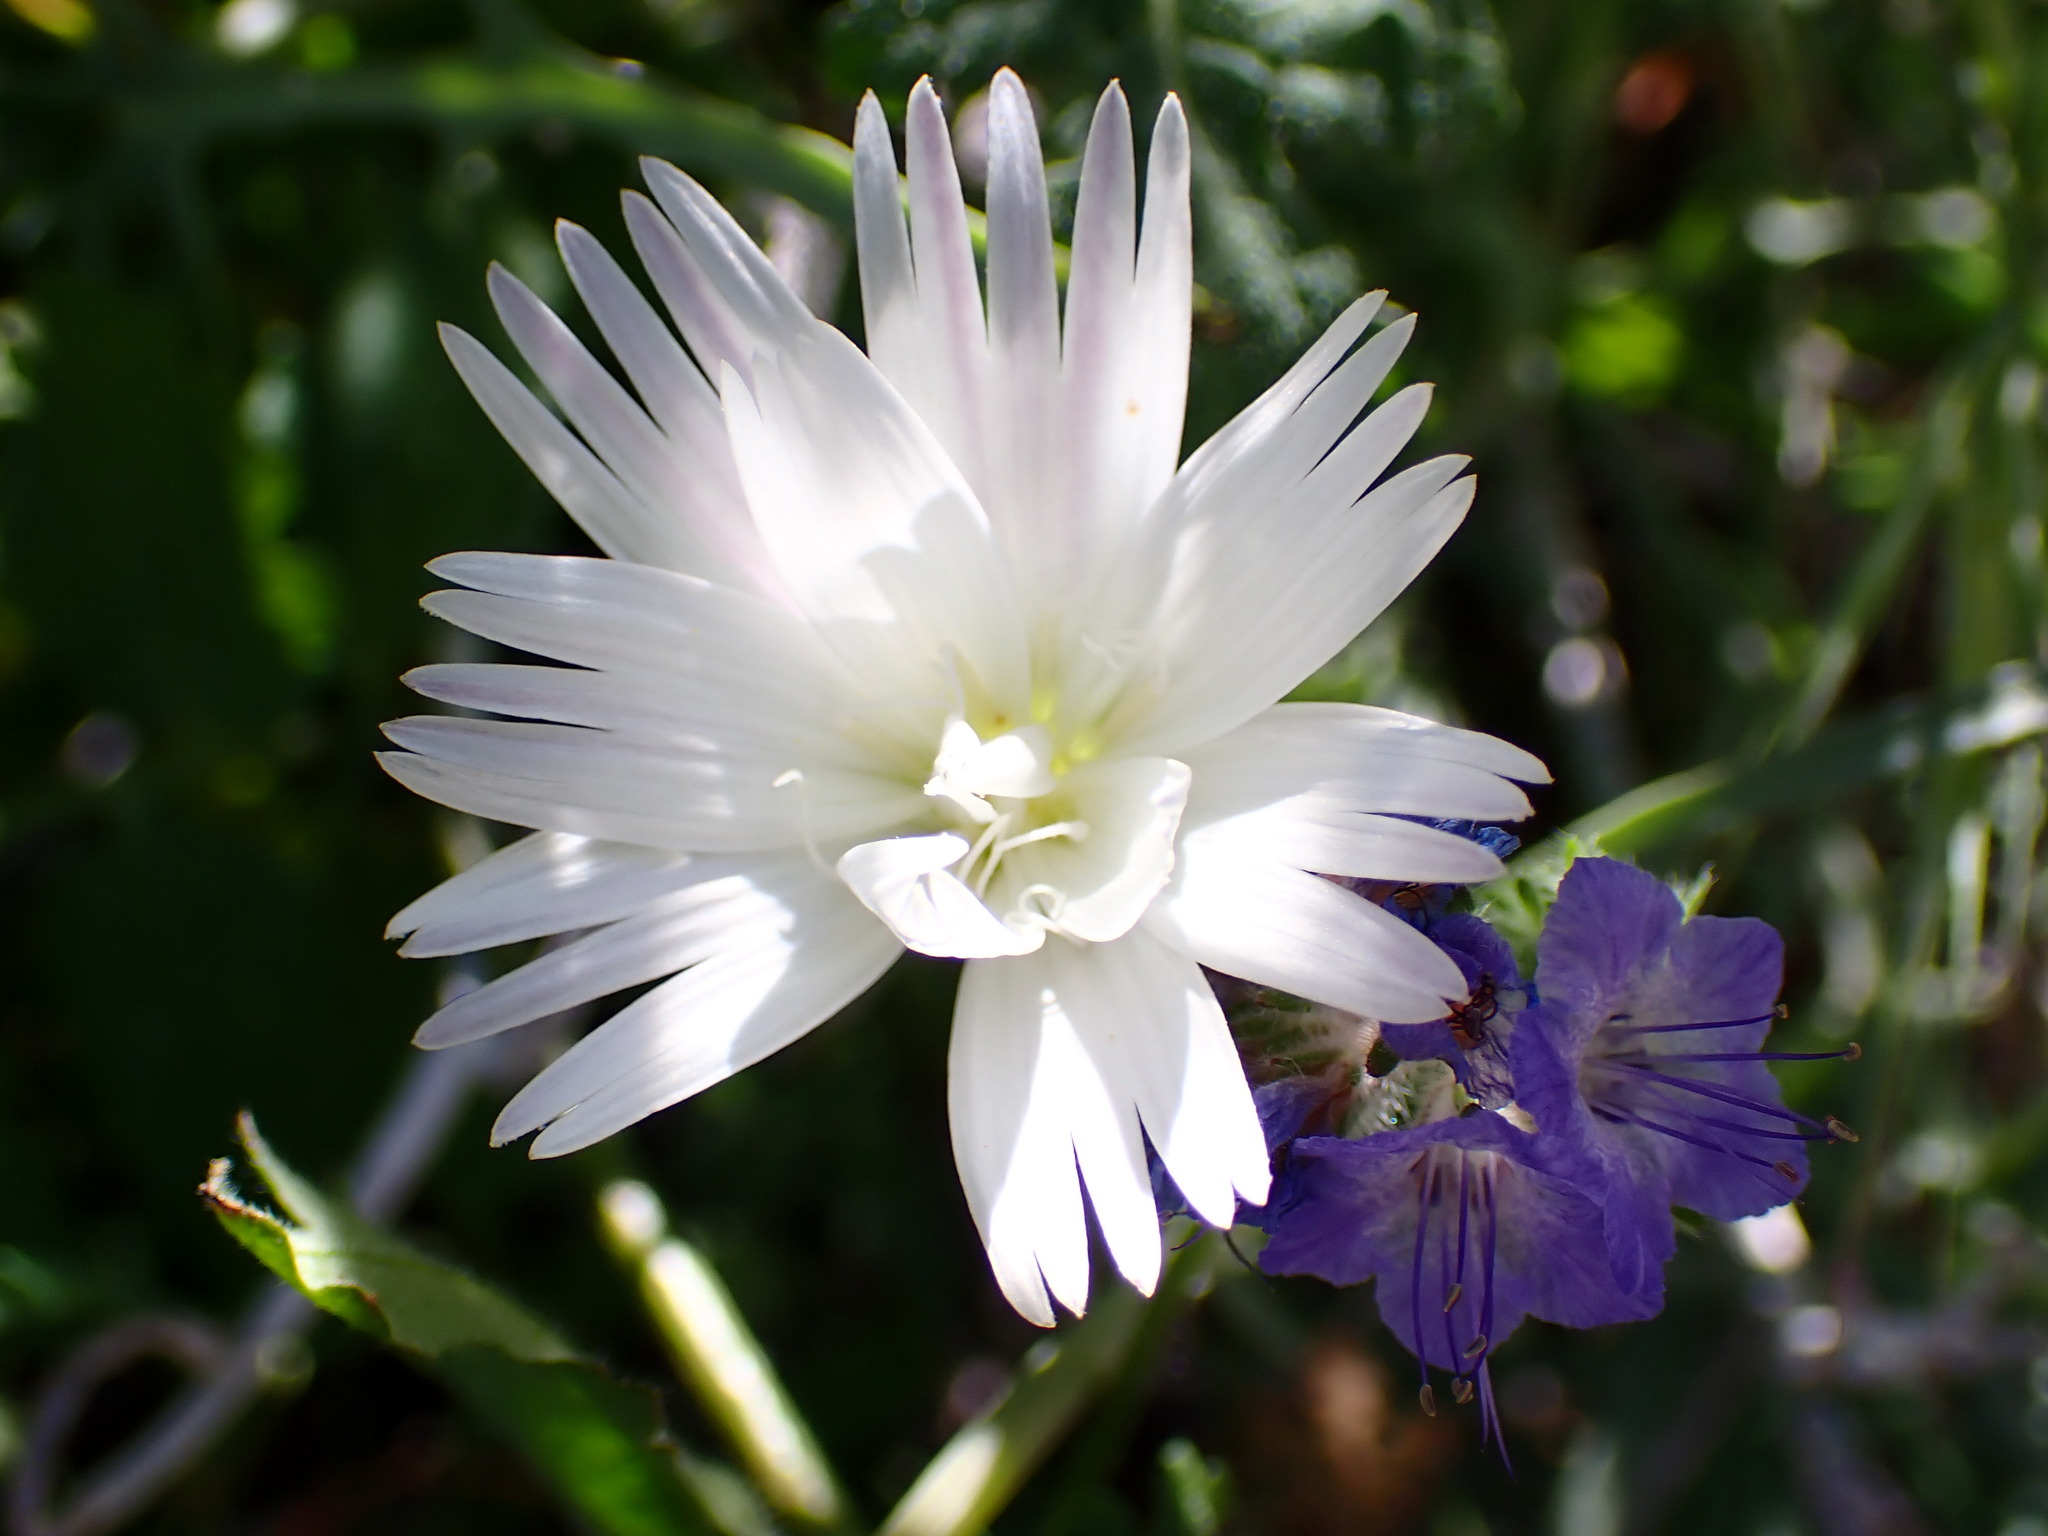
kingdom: Plantae
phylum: Tracheophyta
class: Magnoliopsida
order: Asterales
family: Asteraceae
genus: Rafinesquia
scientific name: Rafinesquia neomexicana
